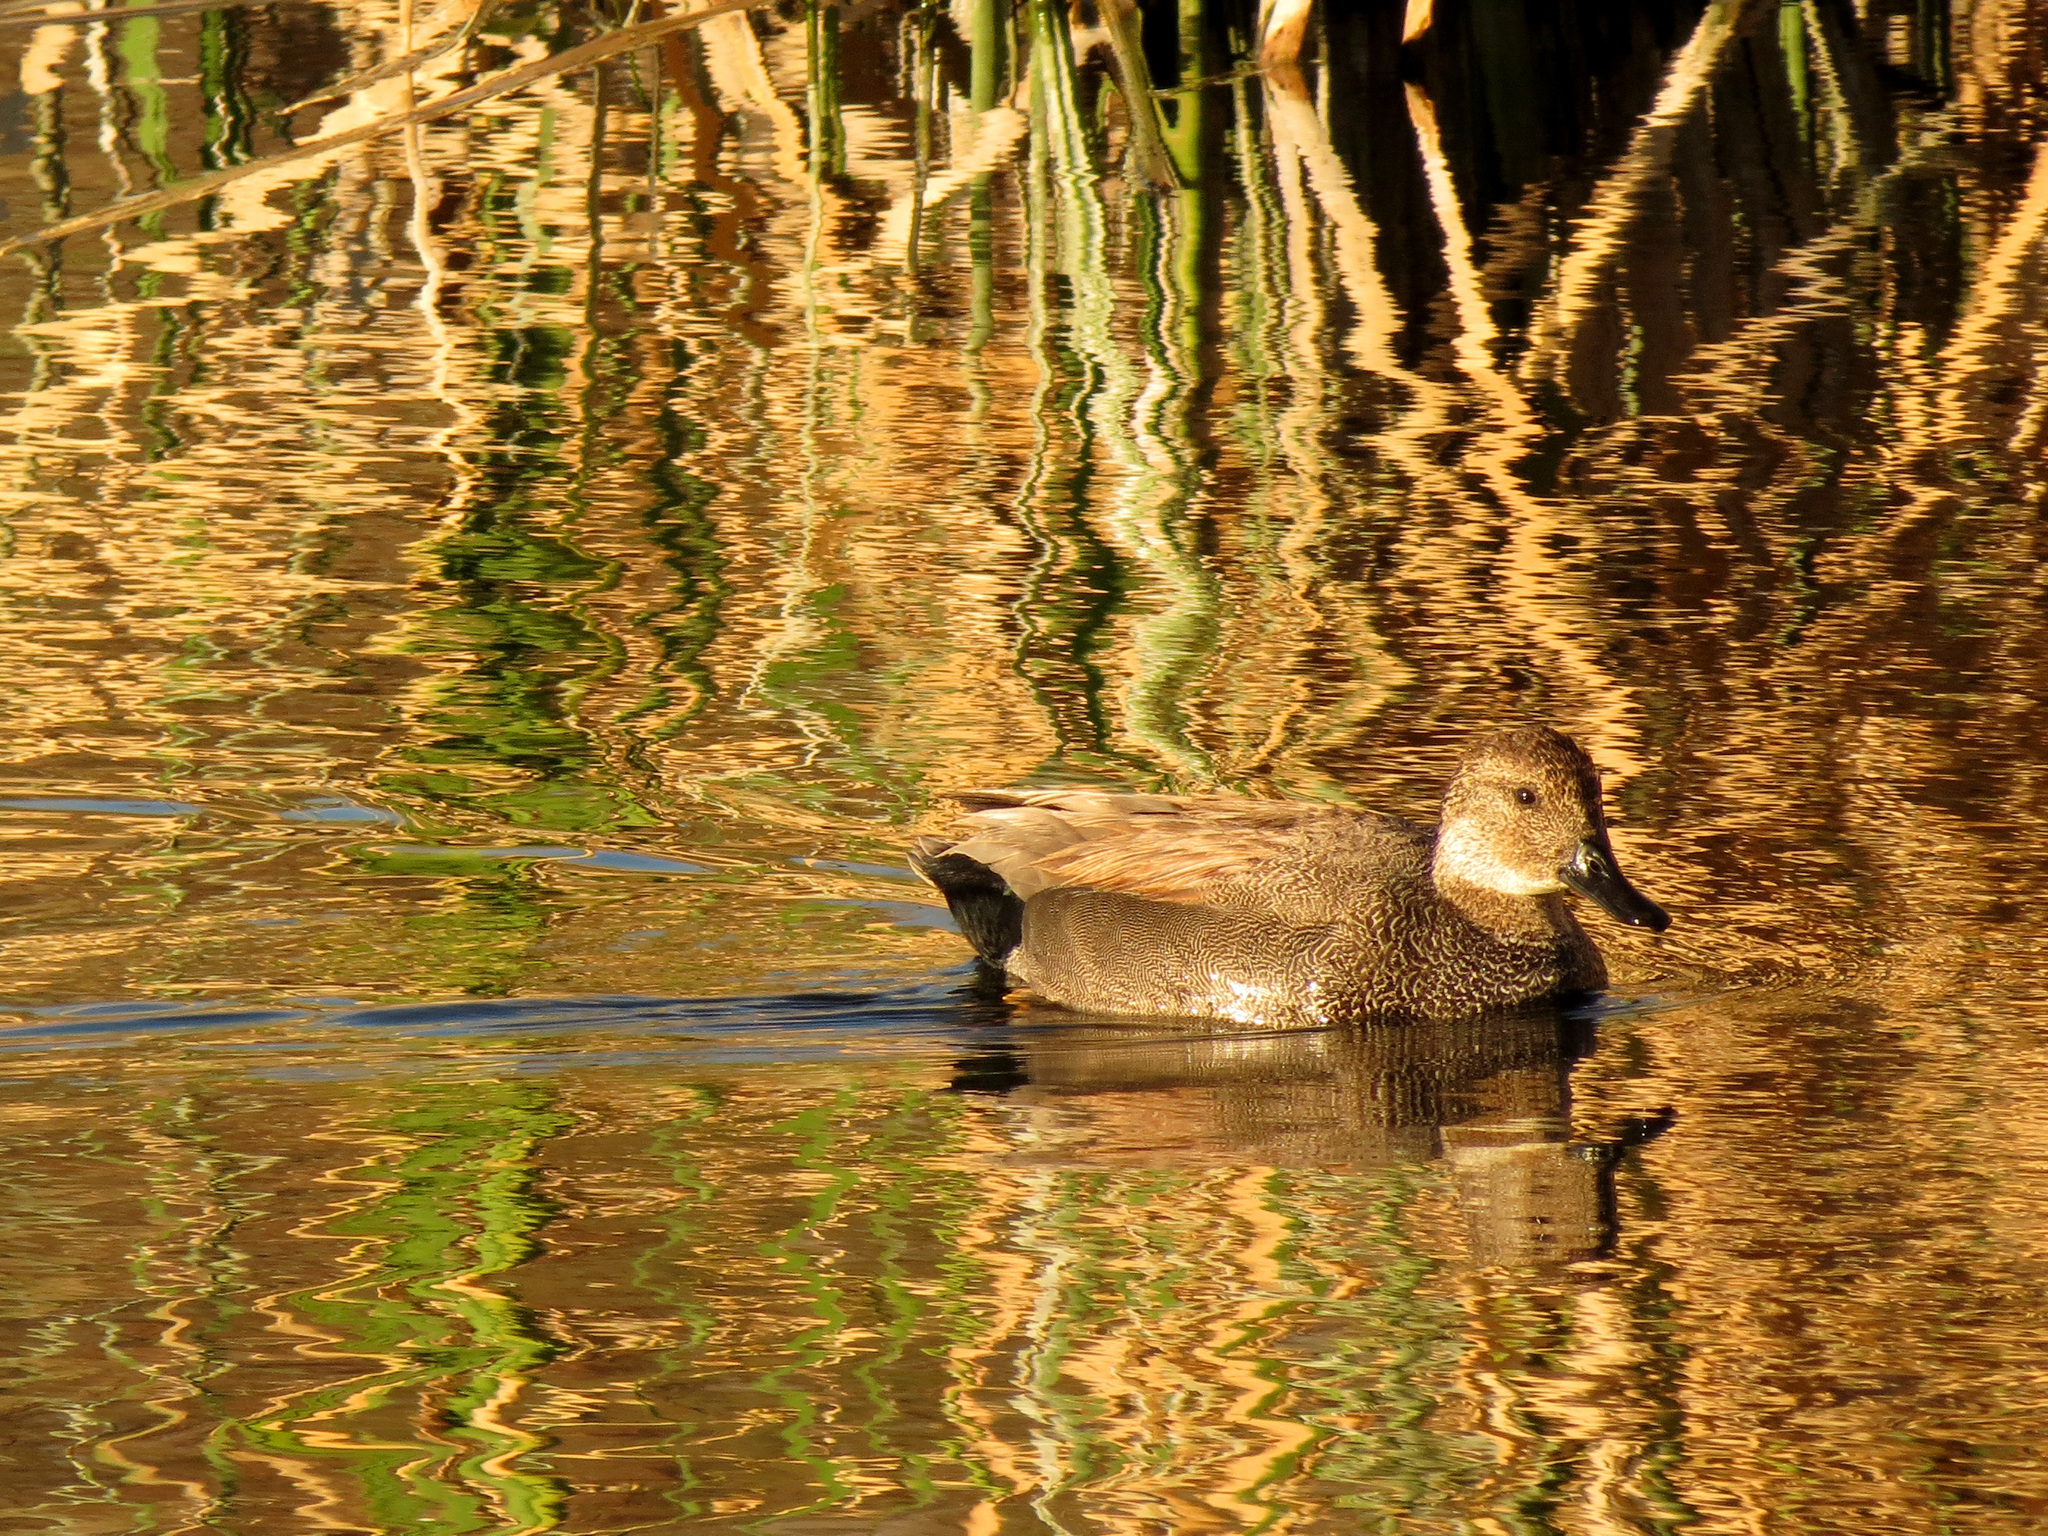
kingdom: Animalia
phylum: Chordata
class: Aves
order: Anseriformes
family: Anatidae
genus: Mareca
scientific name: Mareca strepera
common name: Gadwall
